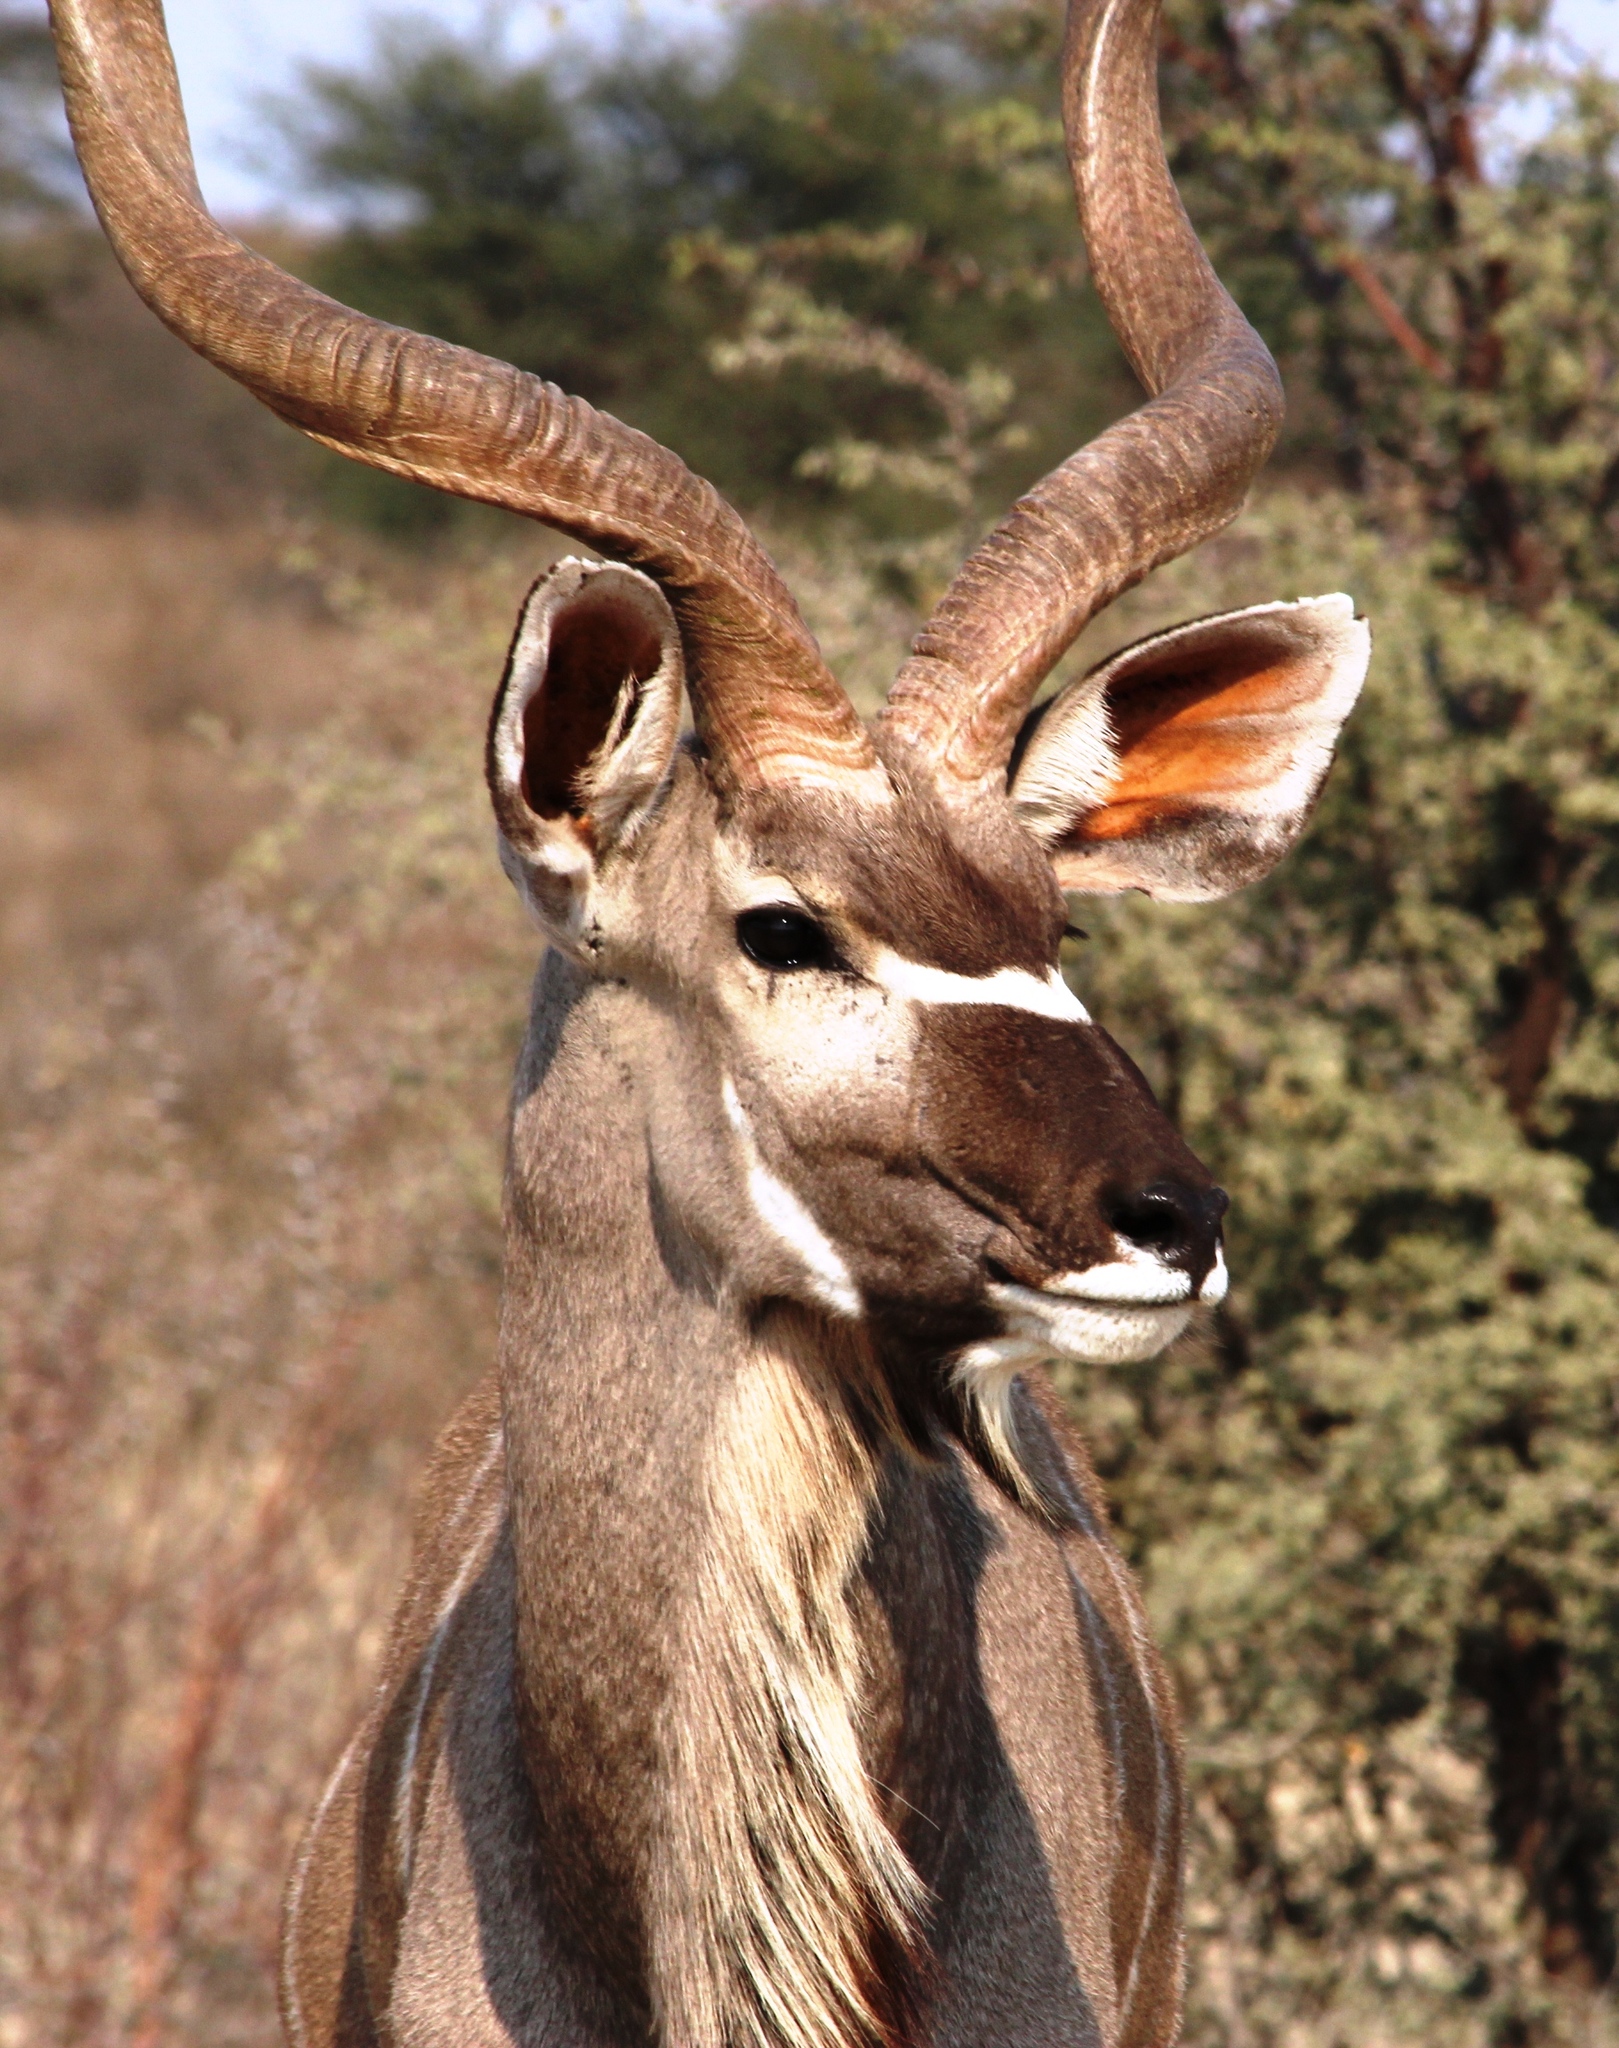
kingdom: Animalia
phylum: Chordata
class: Mammalia
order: Artiodactyla
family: Bovidae
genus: Tragelaphus
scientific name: Tragelaphus strepsiceros
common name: Greater kudu
